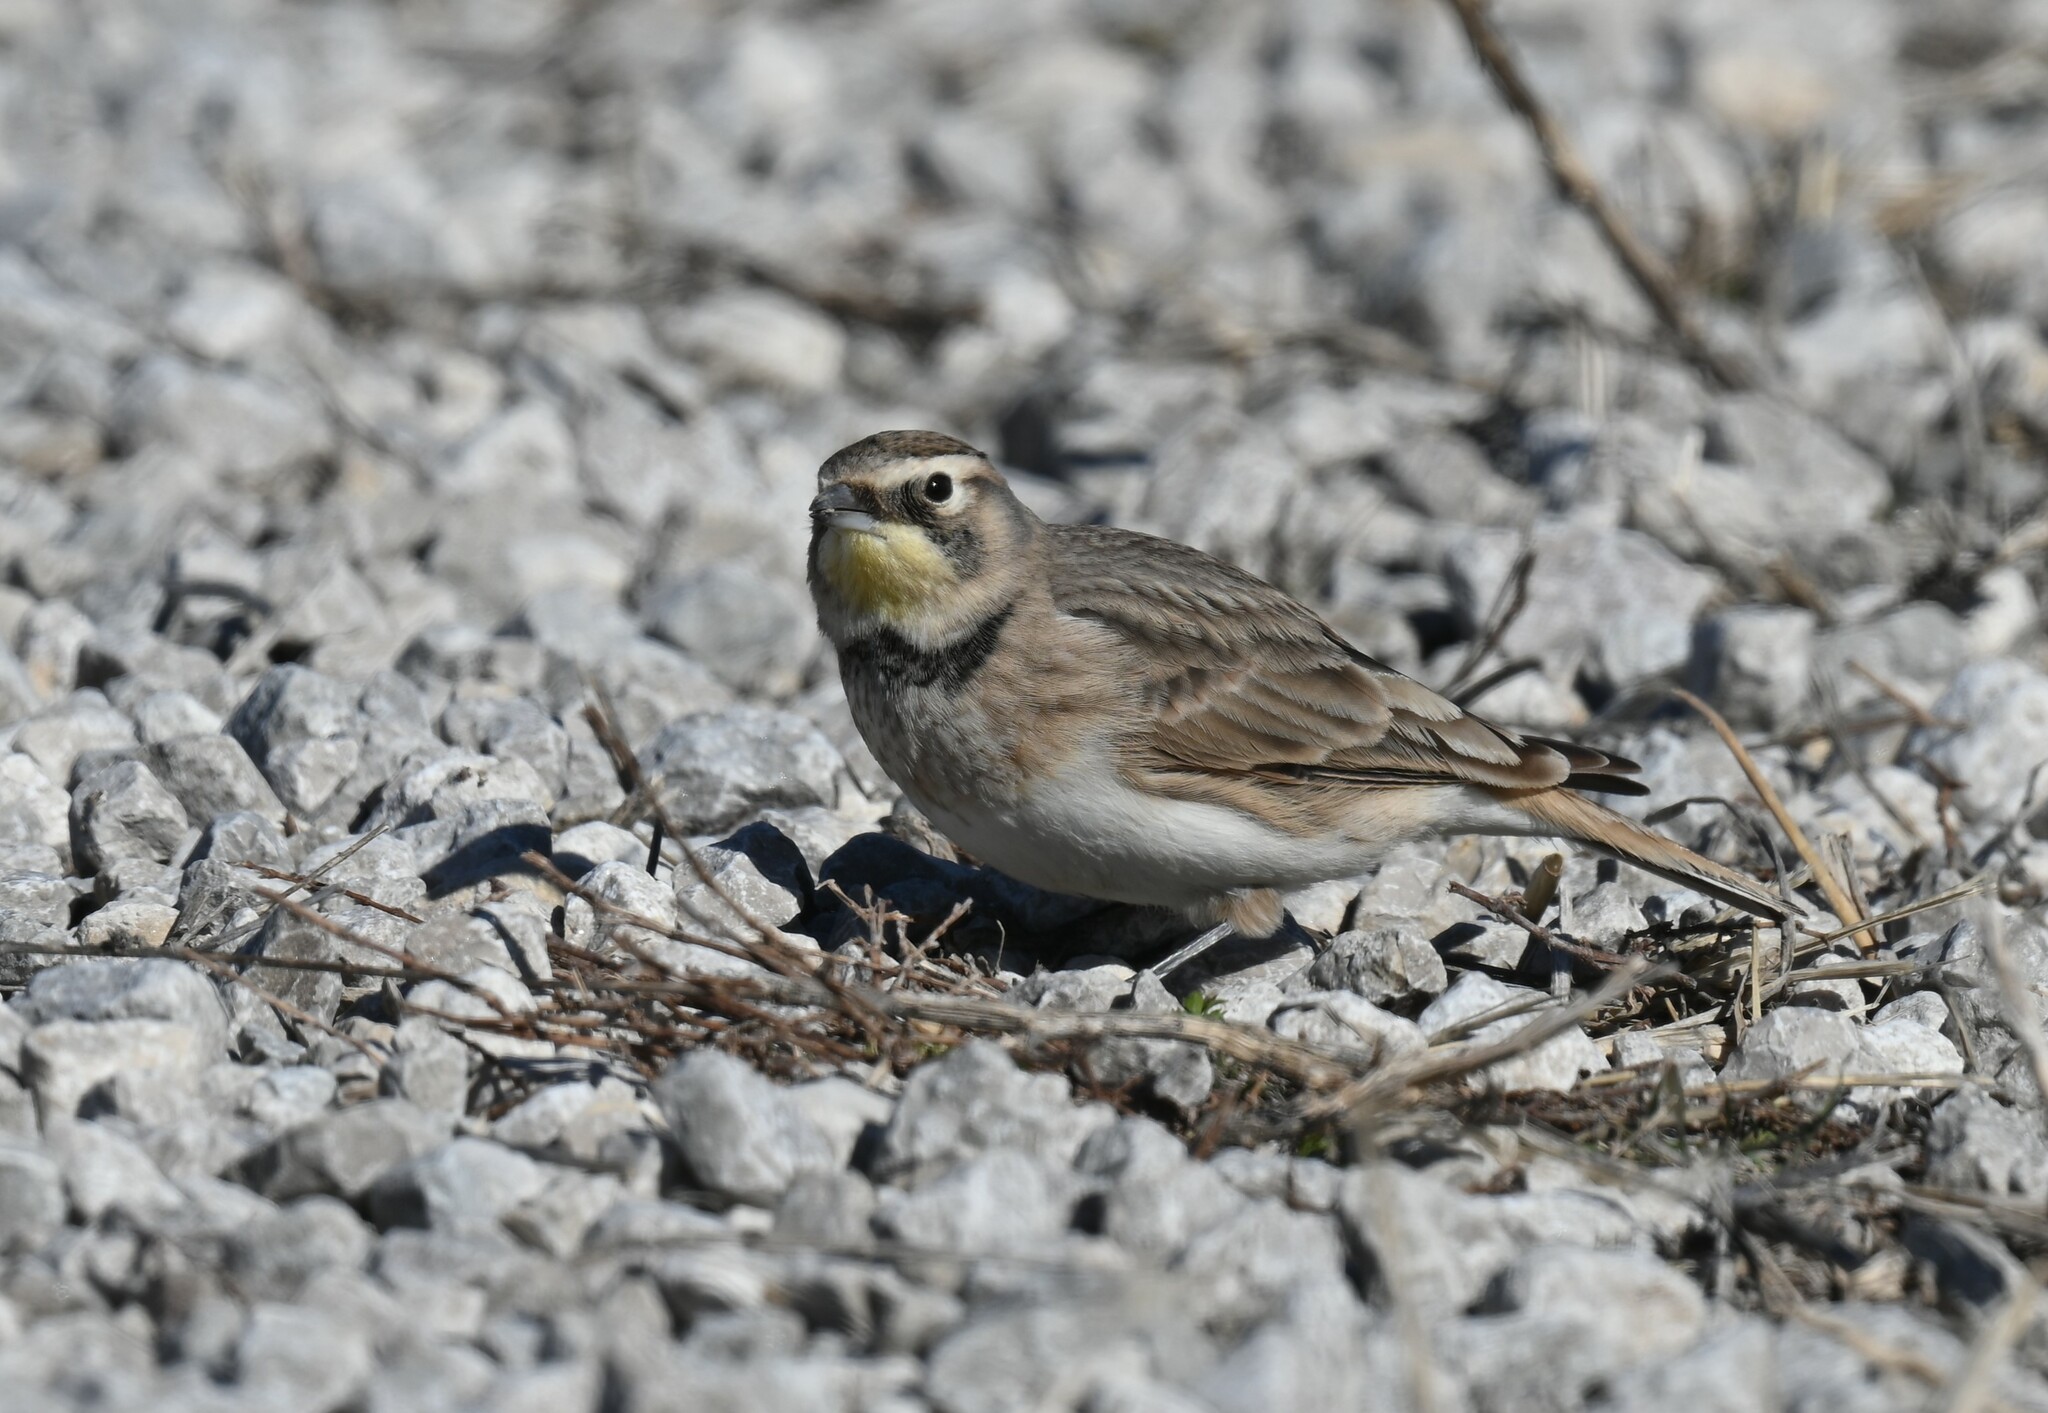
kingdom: Animalia
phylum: Chordata
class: Aves
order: Passeriformes
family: Alaudidae
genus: Eremophila
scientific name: Eremophila alpestris
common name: Horned lark
